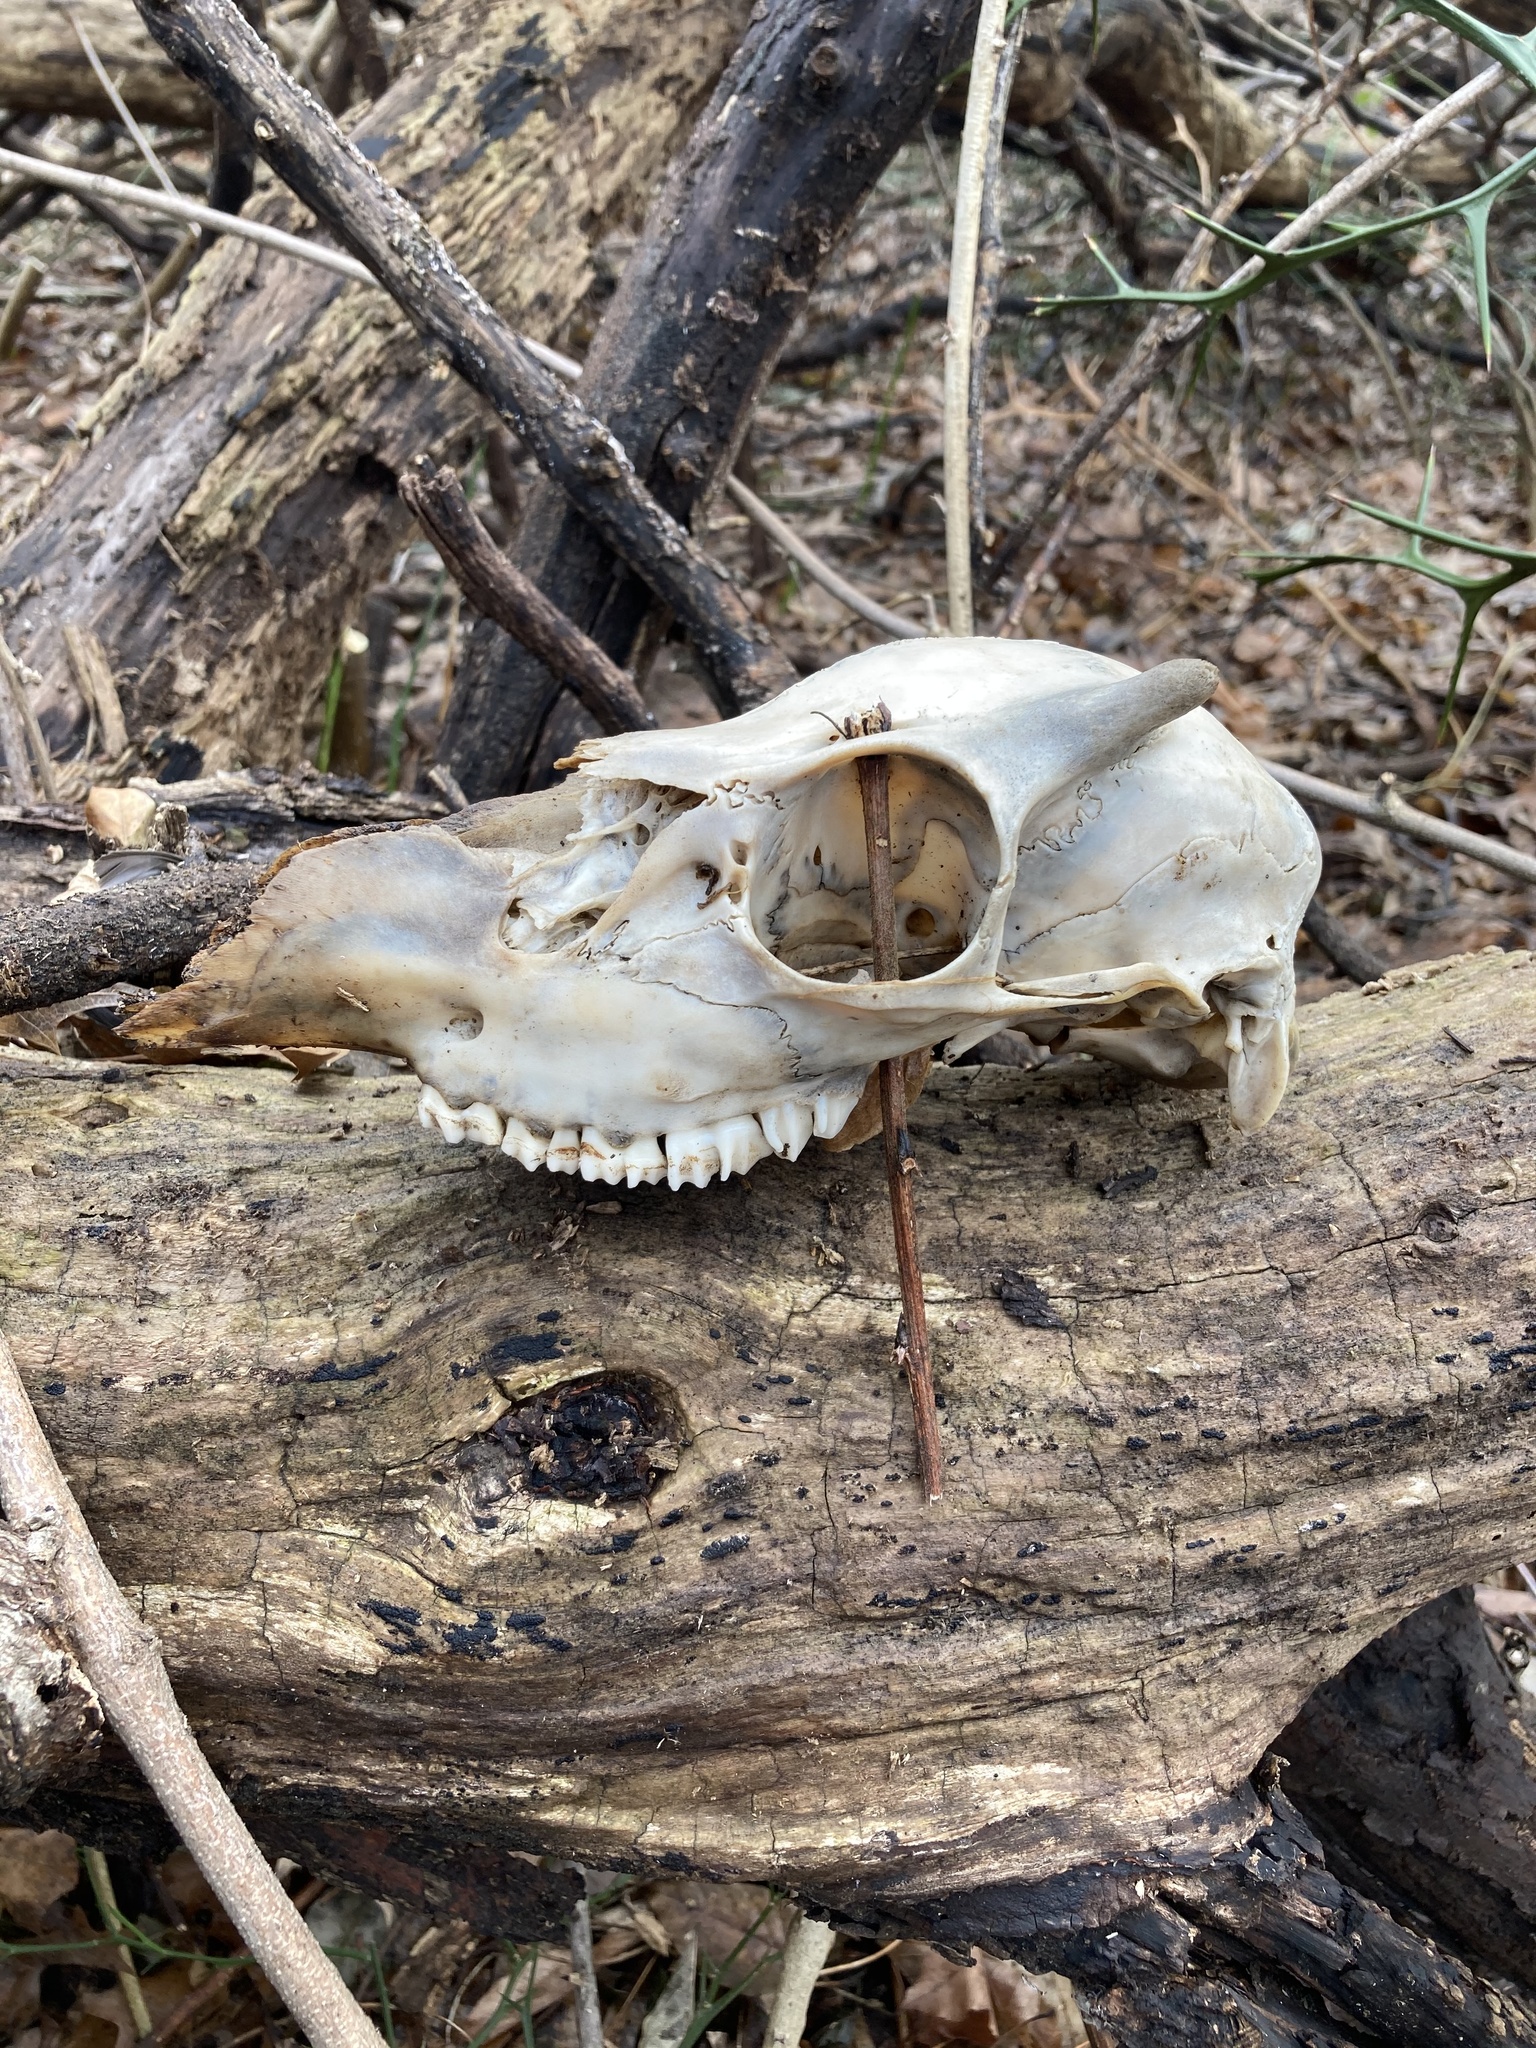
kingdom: Animalia
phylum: Chordata
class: Mammalia
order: Artiodactyla
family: Cervidae
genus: Odocoileus
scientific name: Odocoileus virginianus
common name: White-tailed deer
